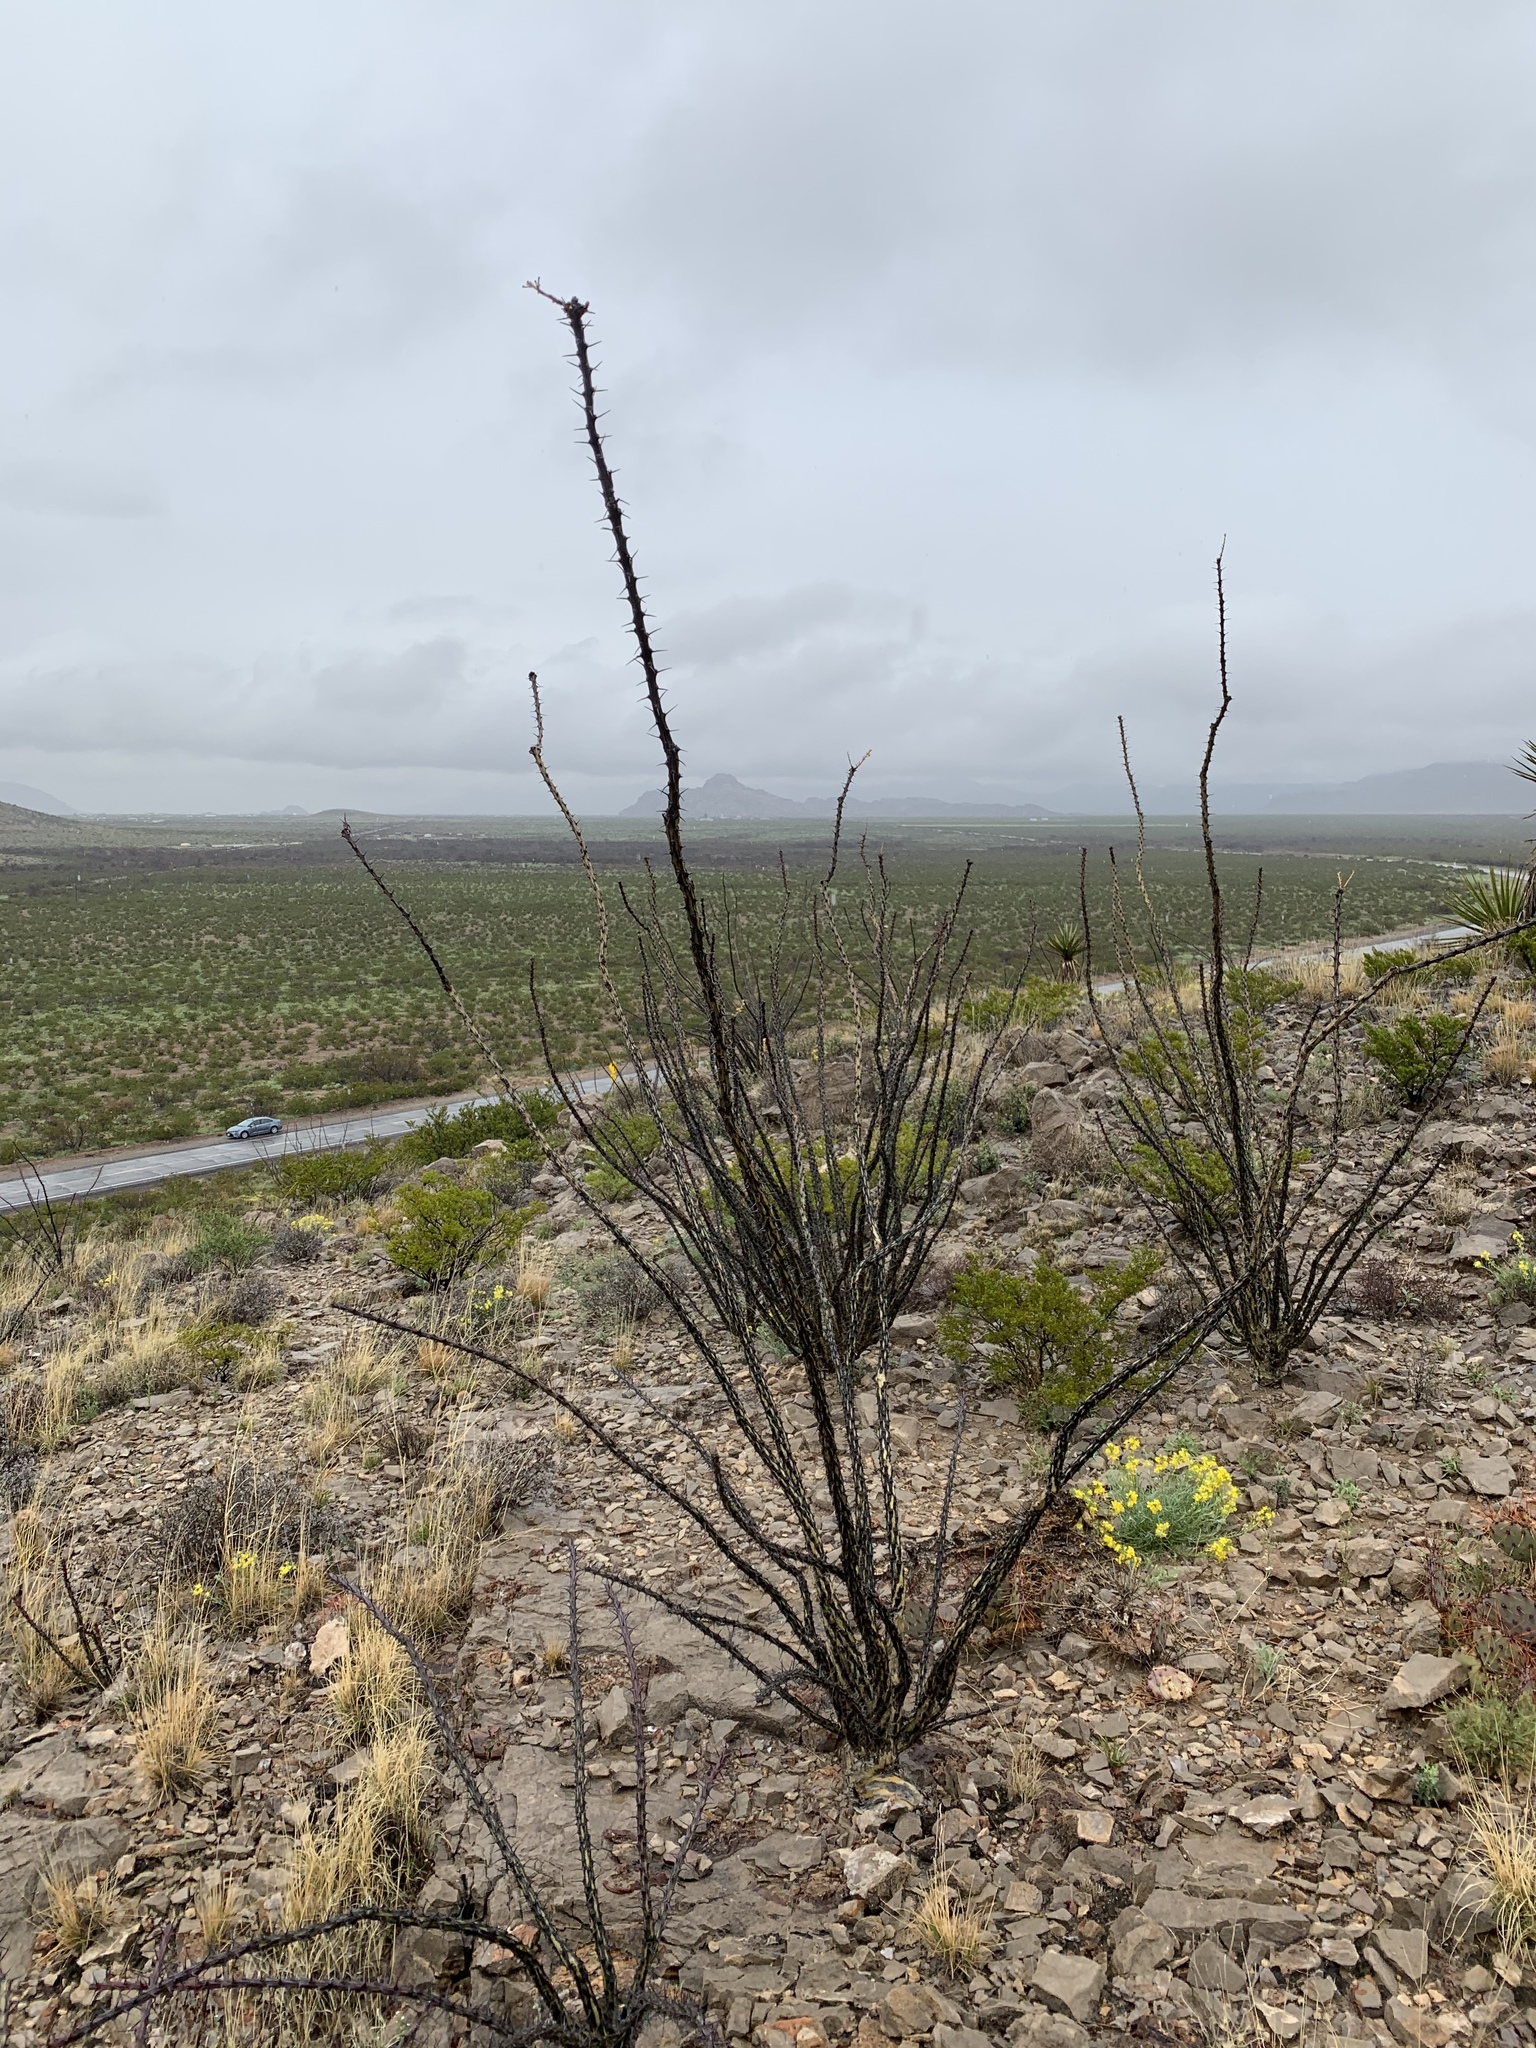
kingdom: Plantae
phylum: Tracheophyta
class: Magnoliopsida
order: Ericales
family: Fouquieriaceae
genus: Fouquieria
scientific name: Fouquieria splendens
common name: Vine-cactus
